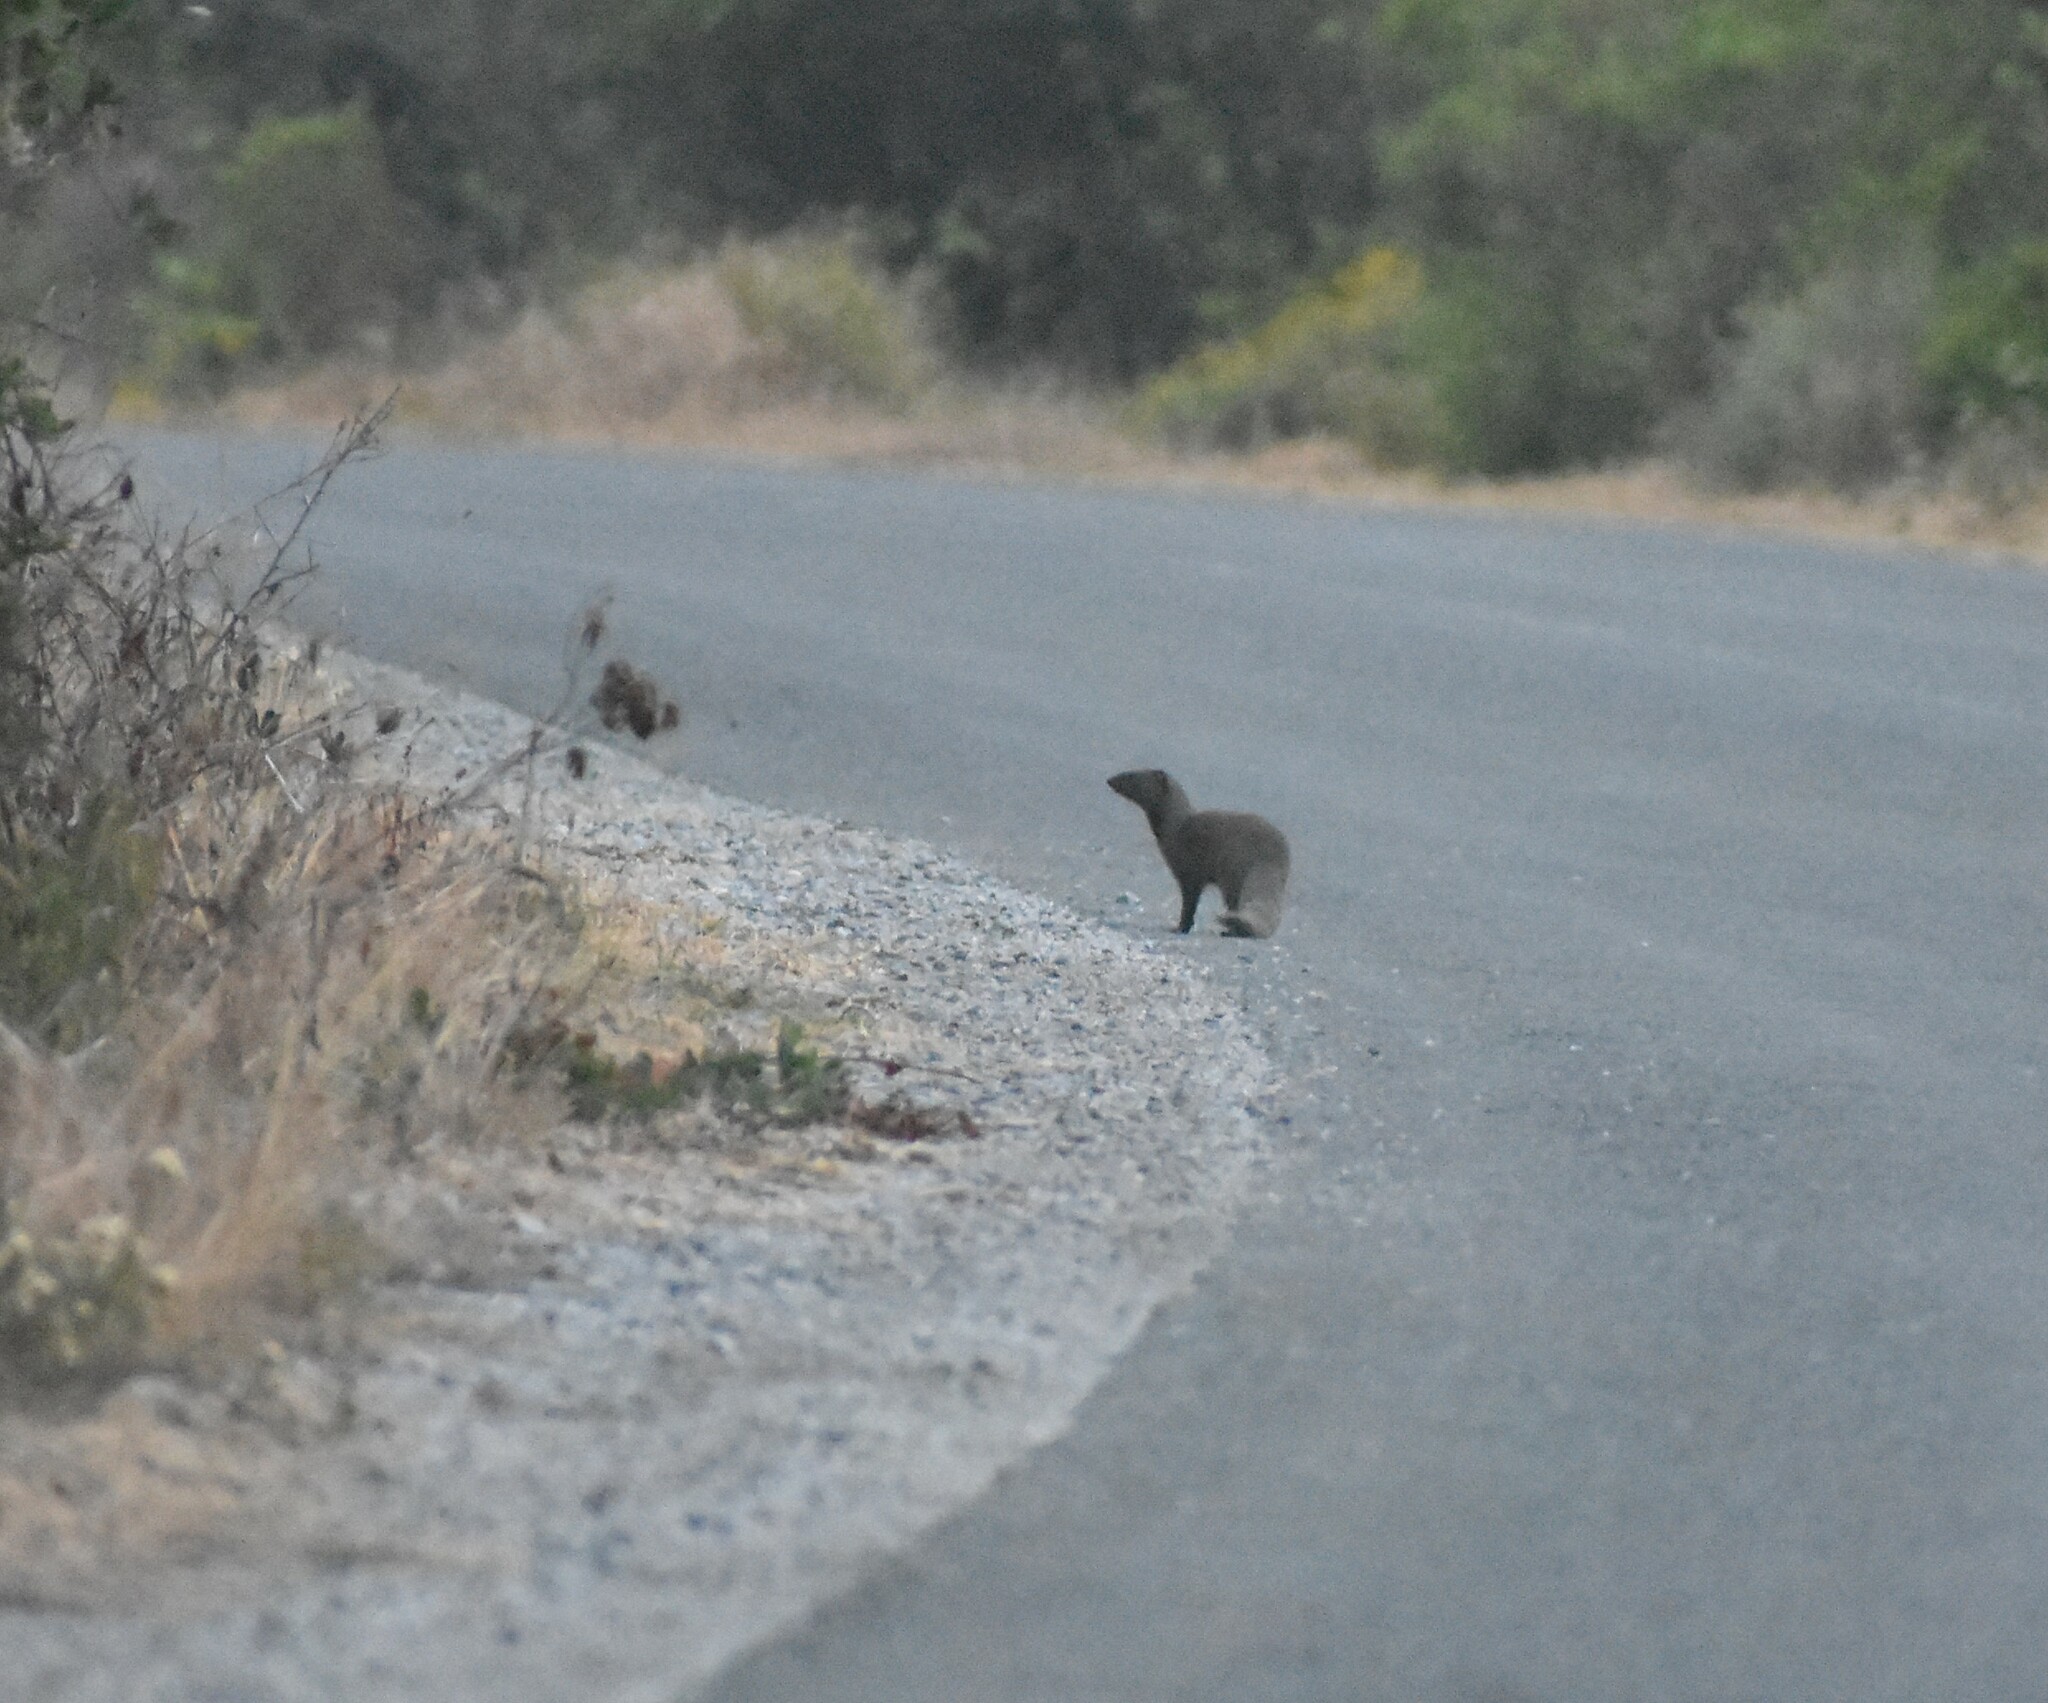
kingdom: Animalia
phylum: Chordata
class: Mammalia
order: Carnivora
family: Herpestidae
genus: Galerella
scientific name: Galerella pulverulenta
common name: Cape gray mongoose
